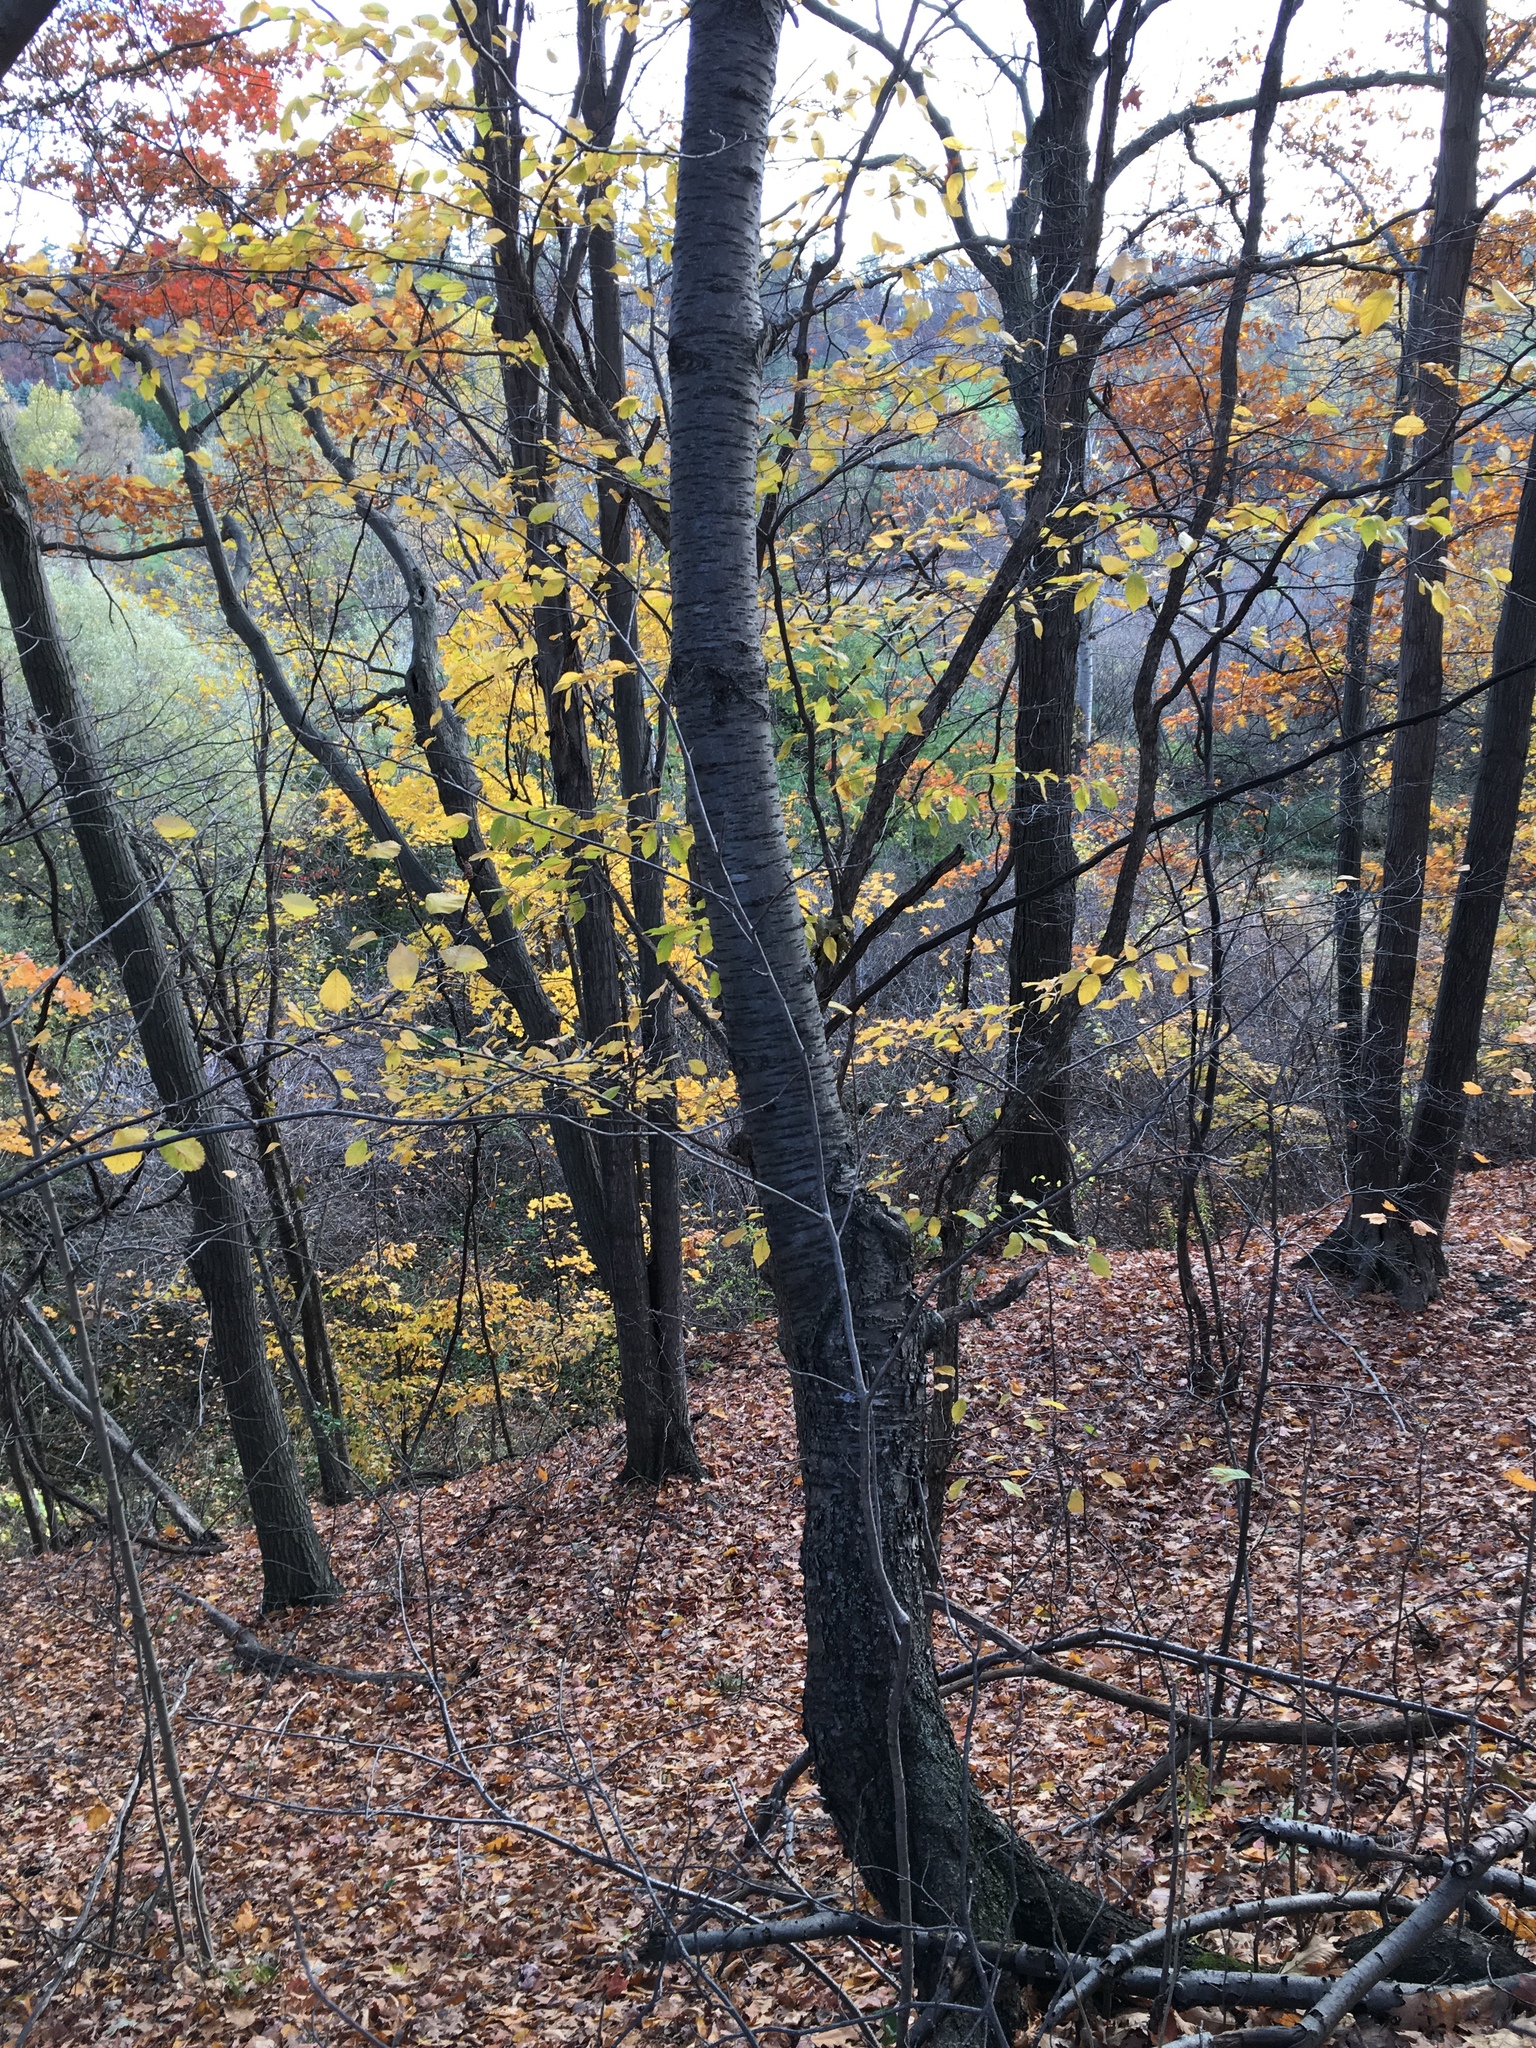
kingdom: Plantae
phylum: Tracheophyta
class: Magnoliopsida
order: Rosales
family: Rosaceae
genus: Prunus
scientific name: Prunus avium
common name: Sweet cherry
